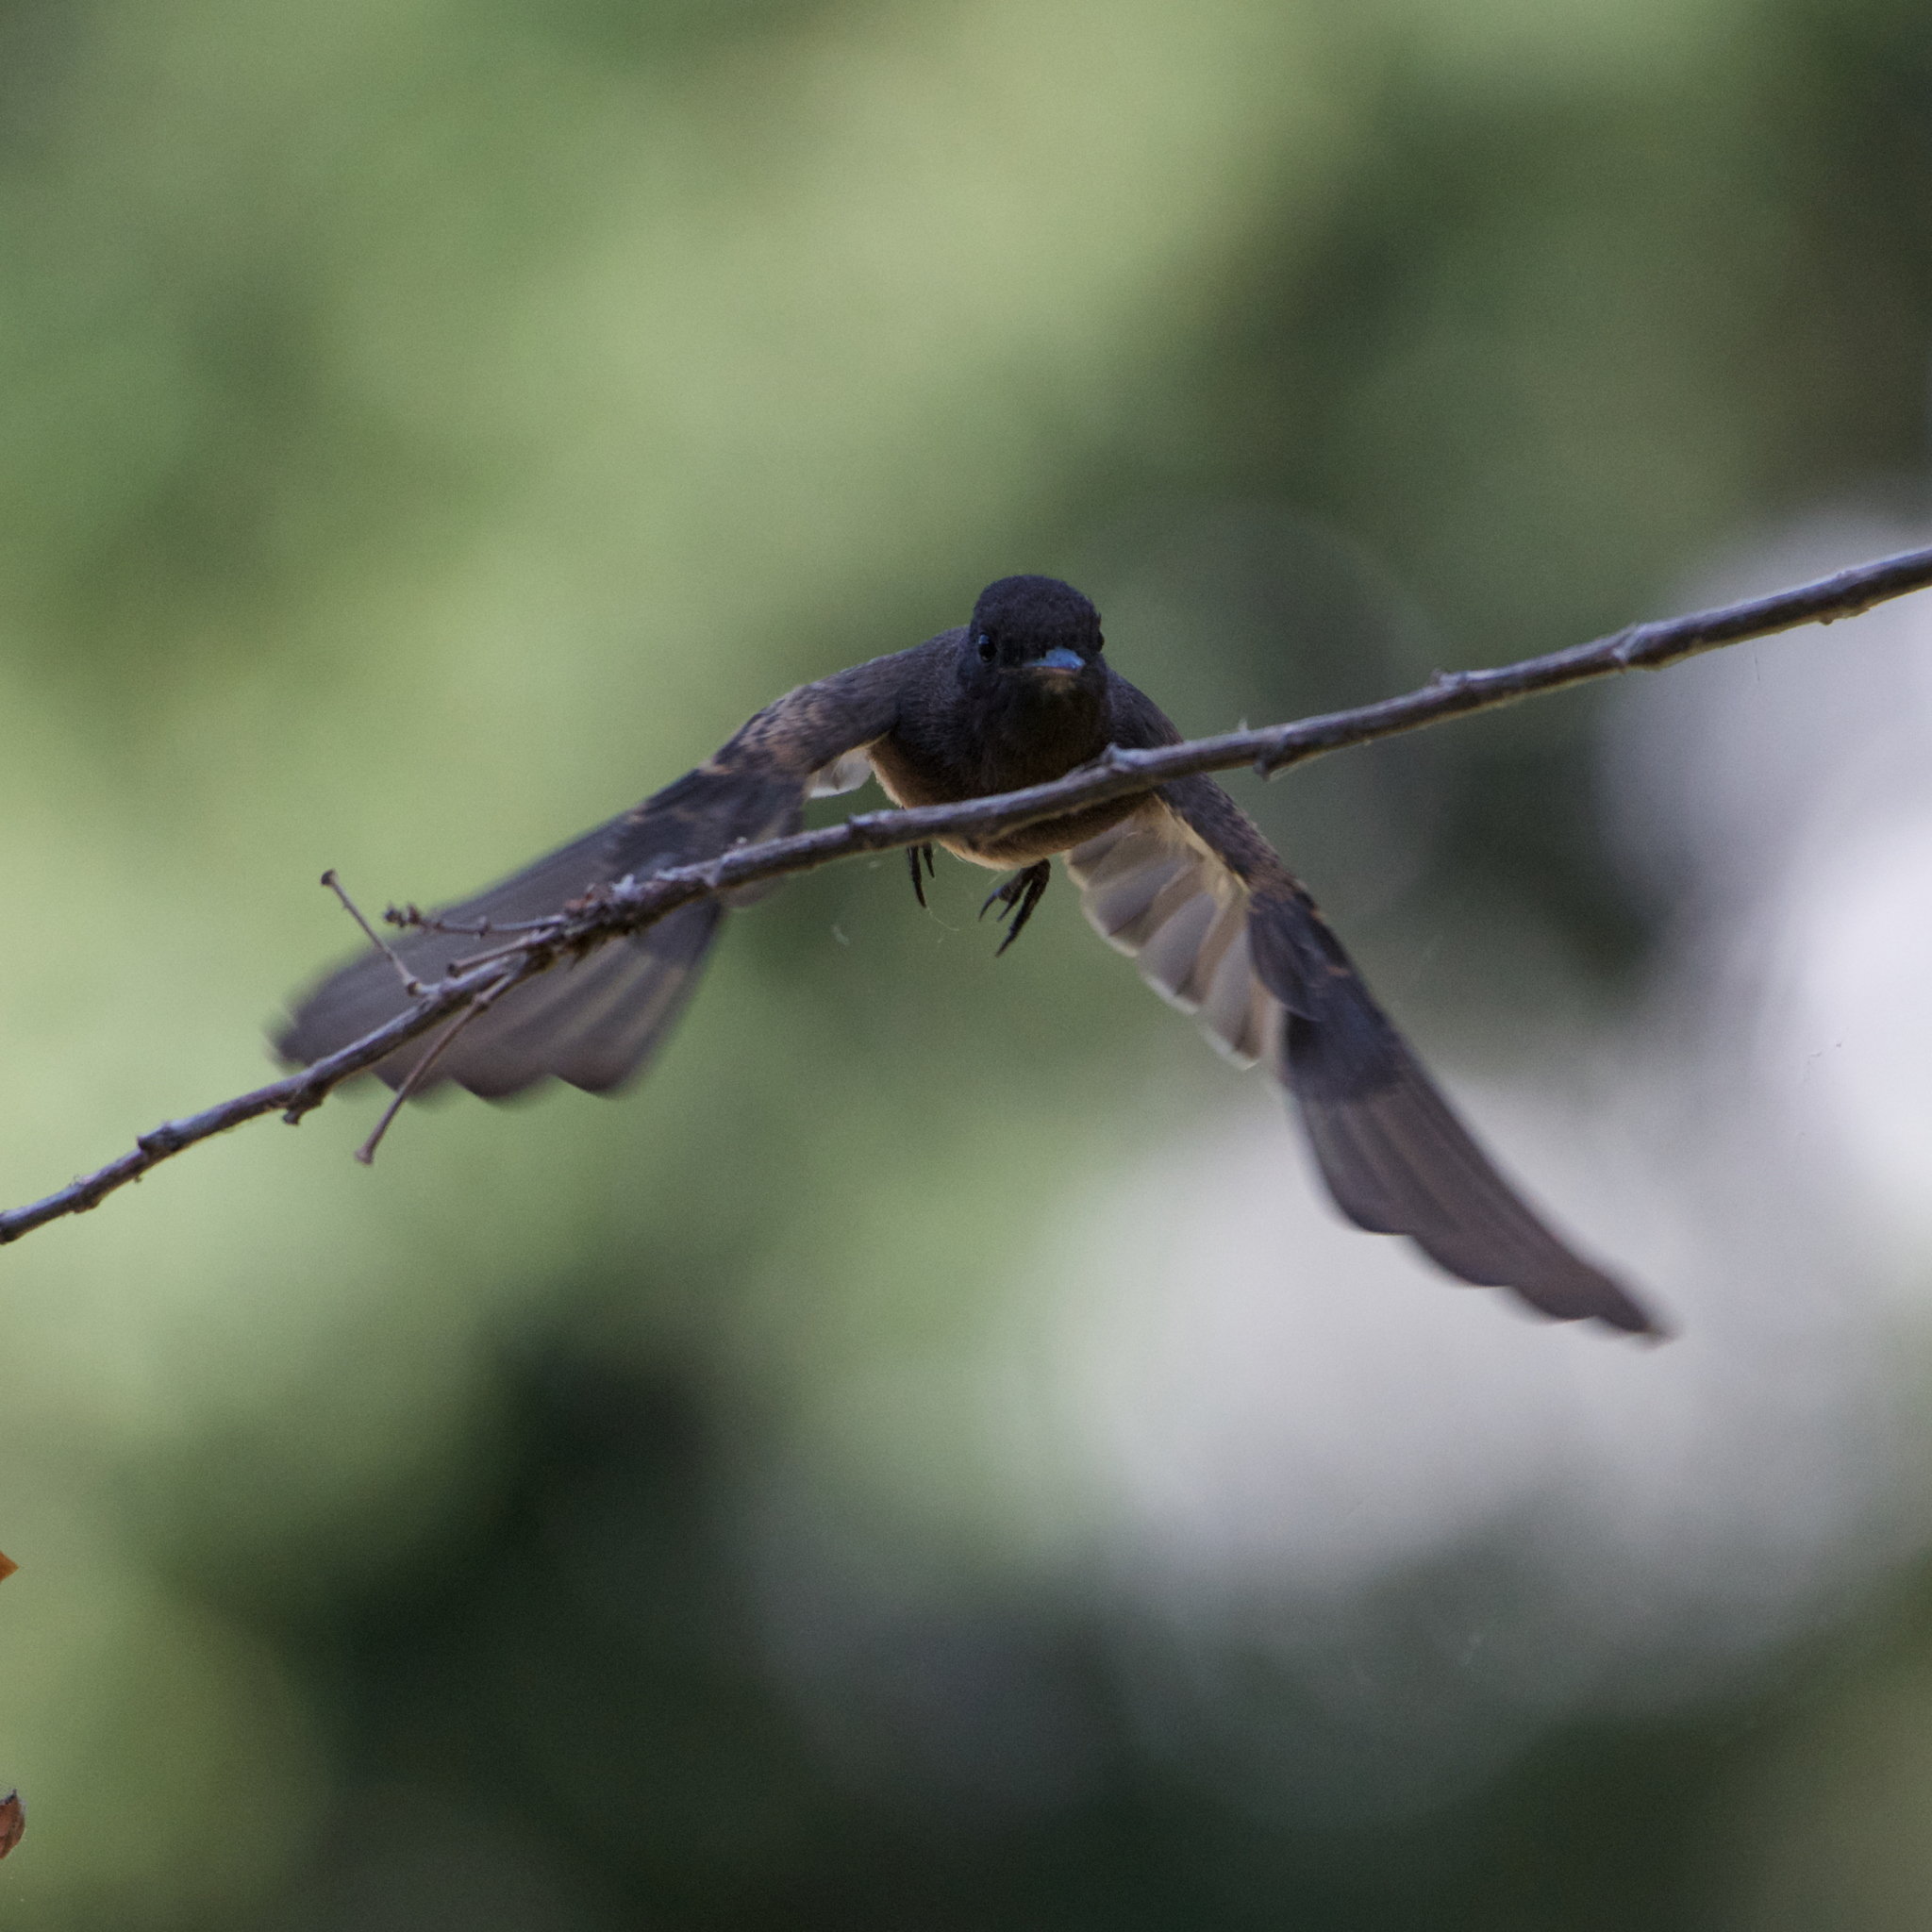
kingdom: Animalia
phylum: Chordata
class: Aves
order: Passeriformes
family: Tyrannidae
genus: Sayornis
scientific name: Sayornis nigricans
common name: Black phoebe
